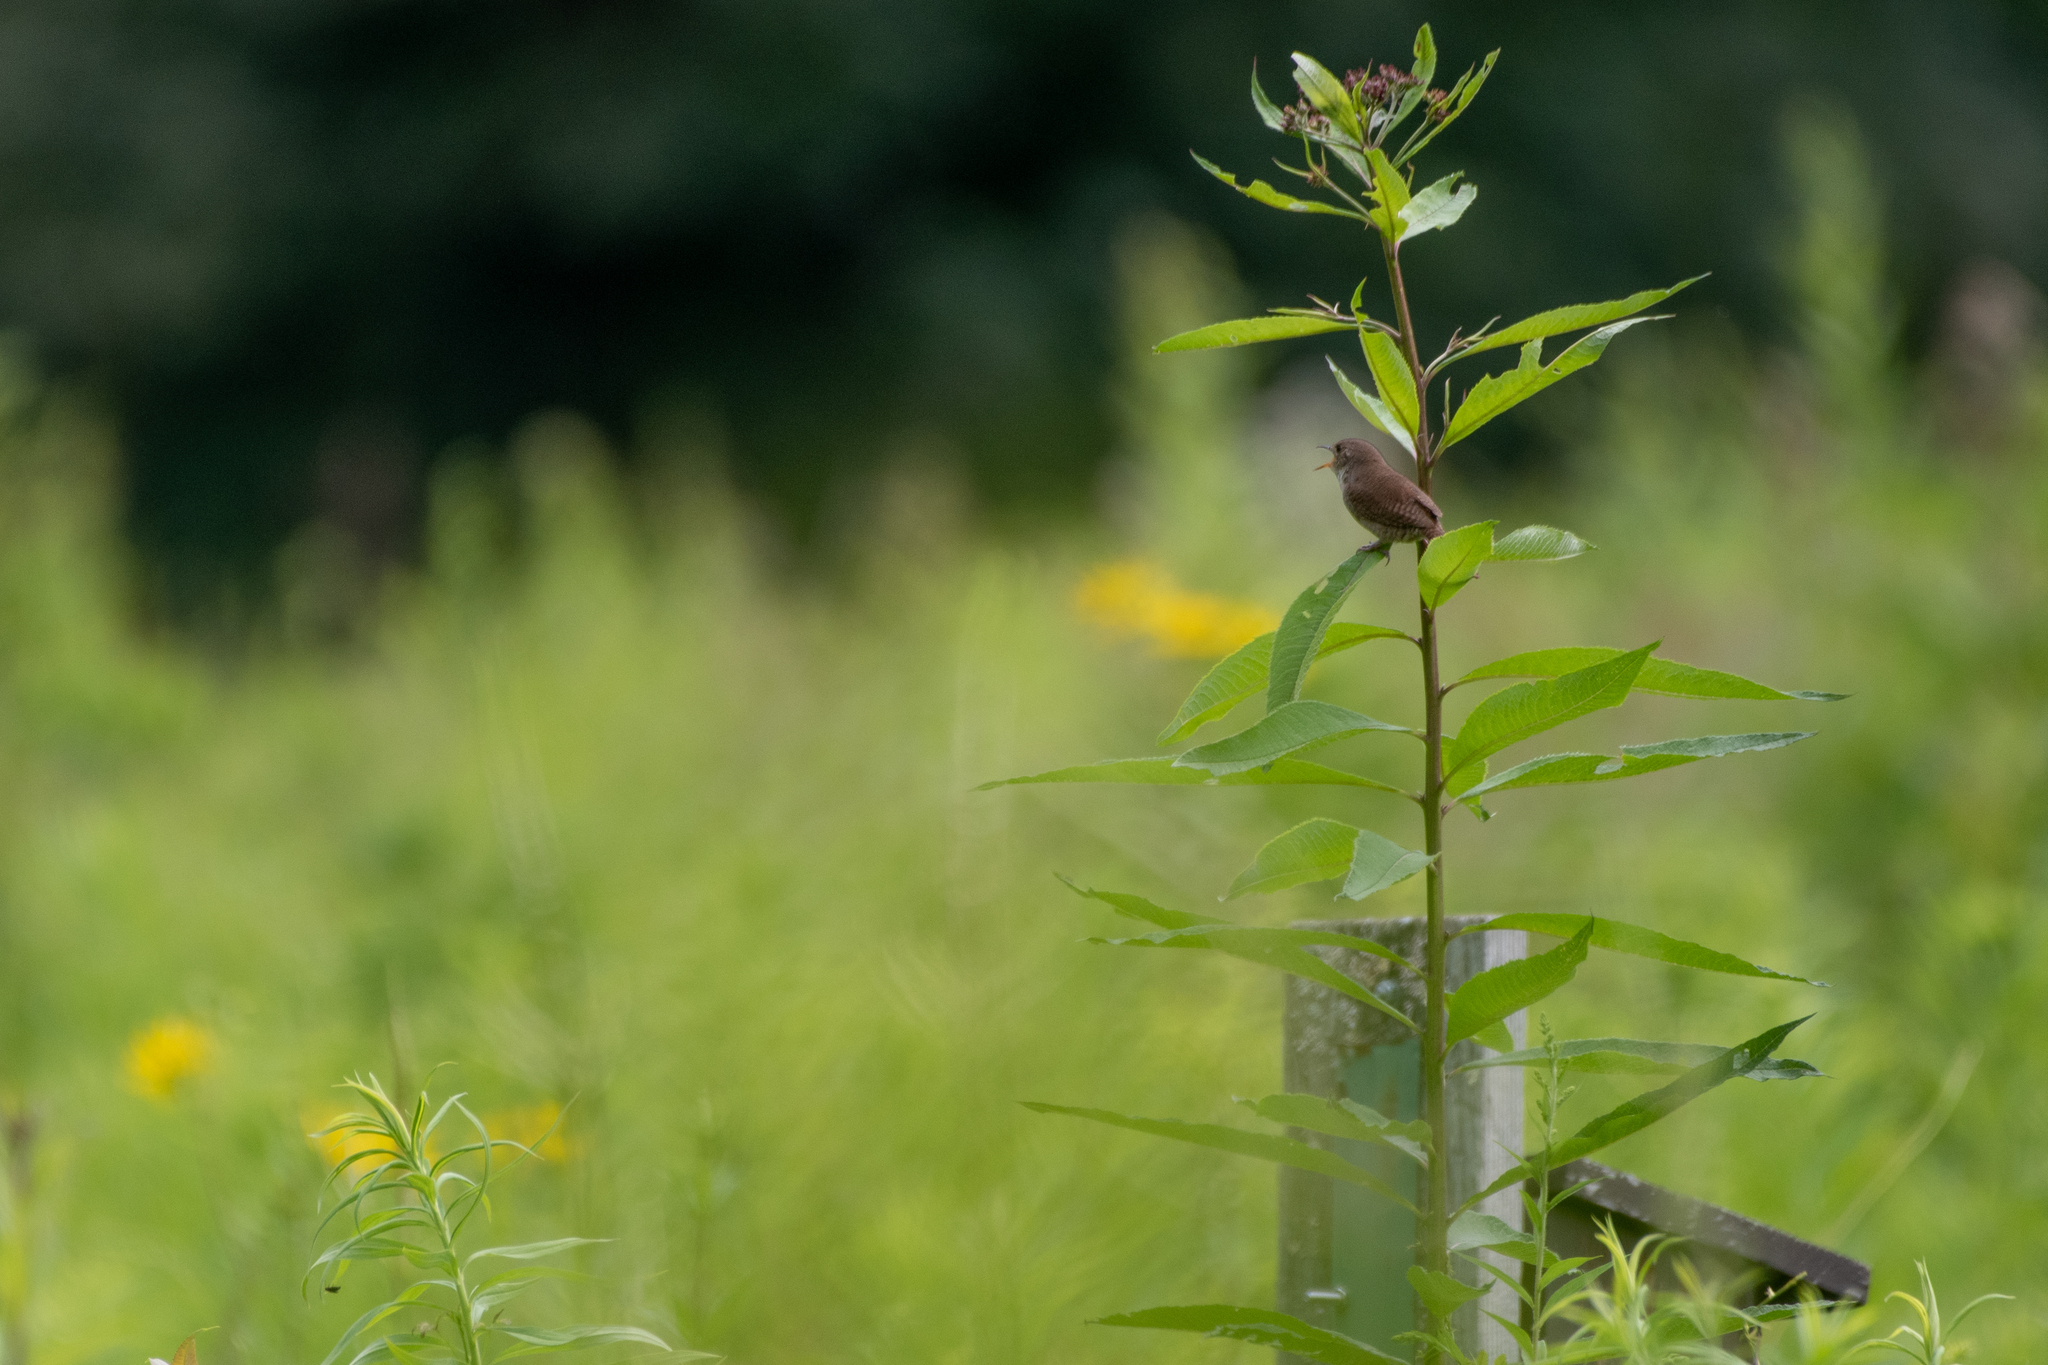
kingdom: Animalia
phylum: Chordata
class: Aves
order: Passeriformes
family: Troglodytidae
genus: Troglodytes
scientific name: Troglodytes aedon
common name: House wren
